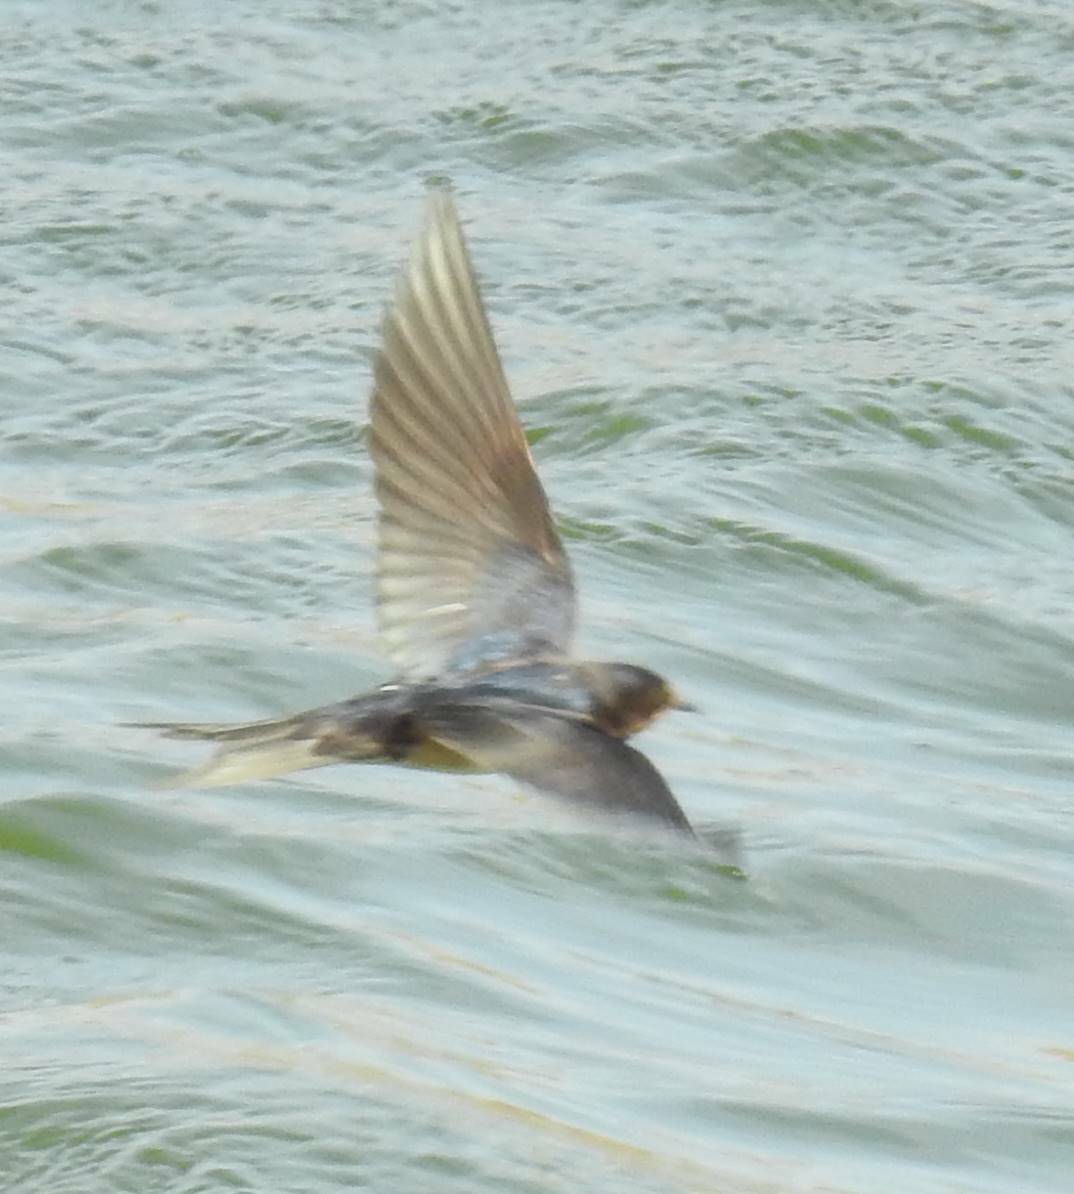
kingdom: Animalia
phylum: Chordata
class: Aves
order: Passeriformes
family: Hirundinidae
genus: Hirundo
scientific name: Hirundo rustica
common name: Barn swallow
